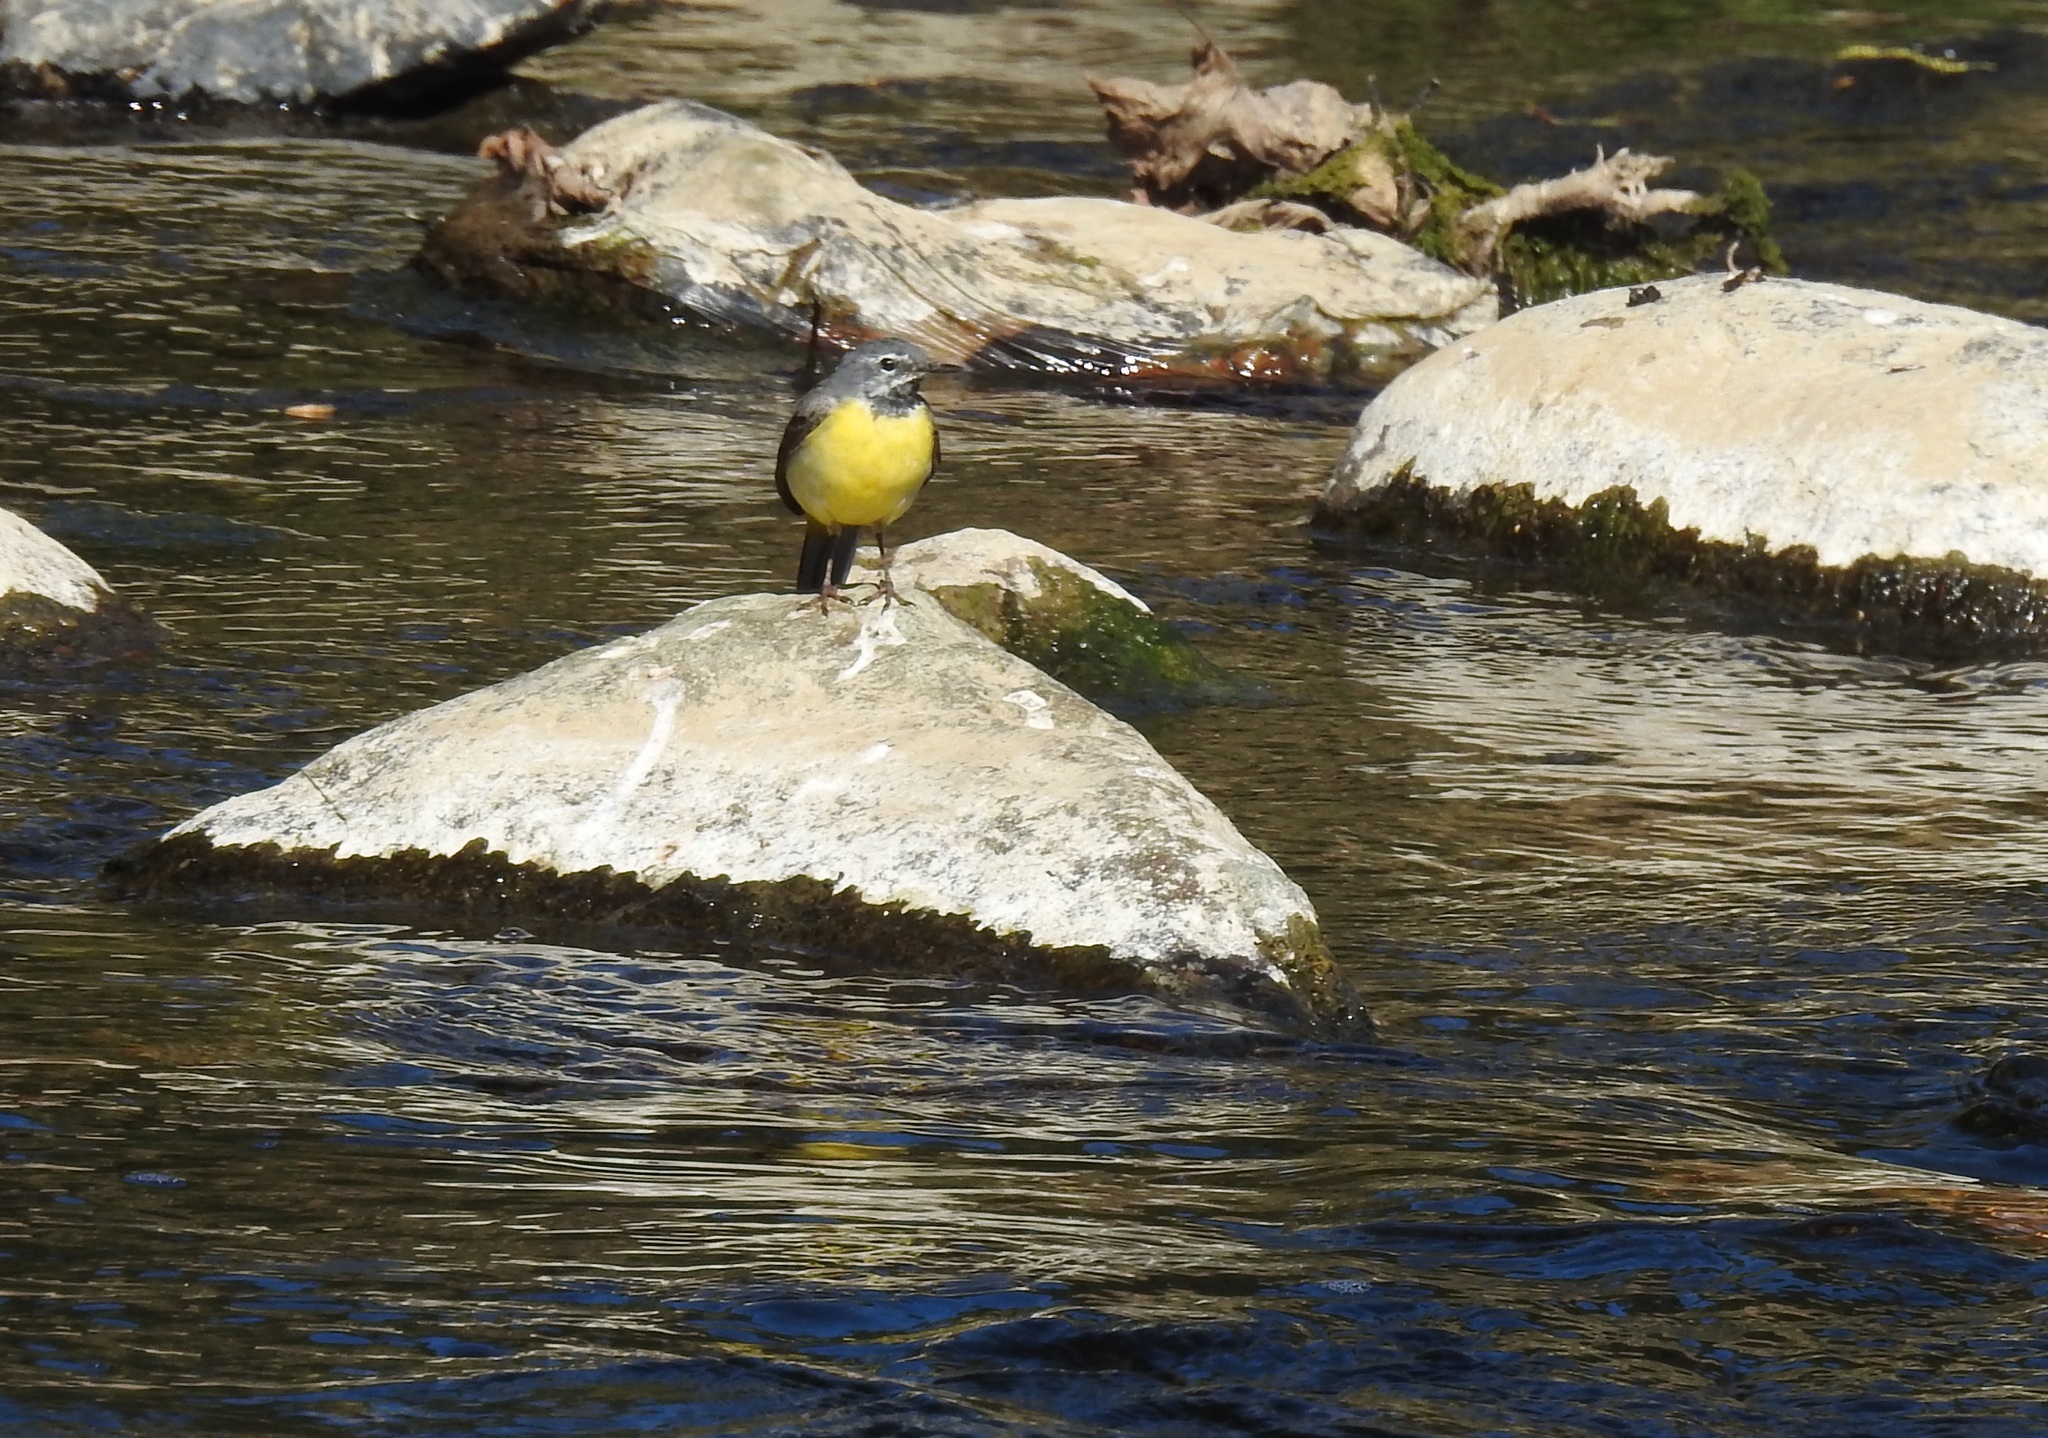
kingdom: Animalia
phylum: Chordata
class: Aves
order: Passeriformes
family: Motacillidae
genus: Motacilla
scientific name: Motacilla cinerea
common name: Grey wagtail
